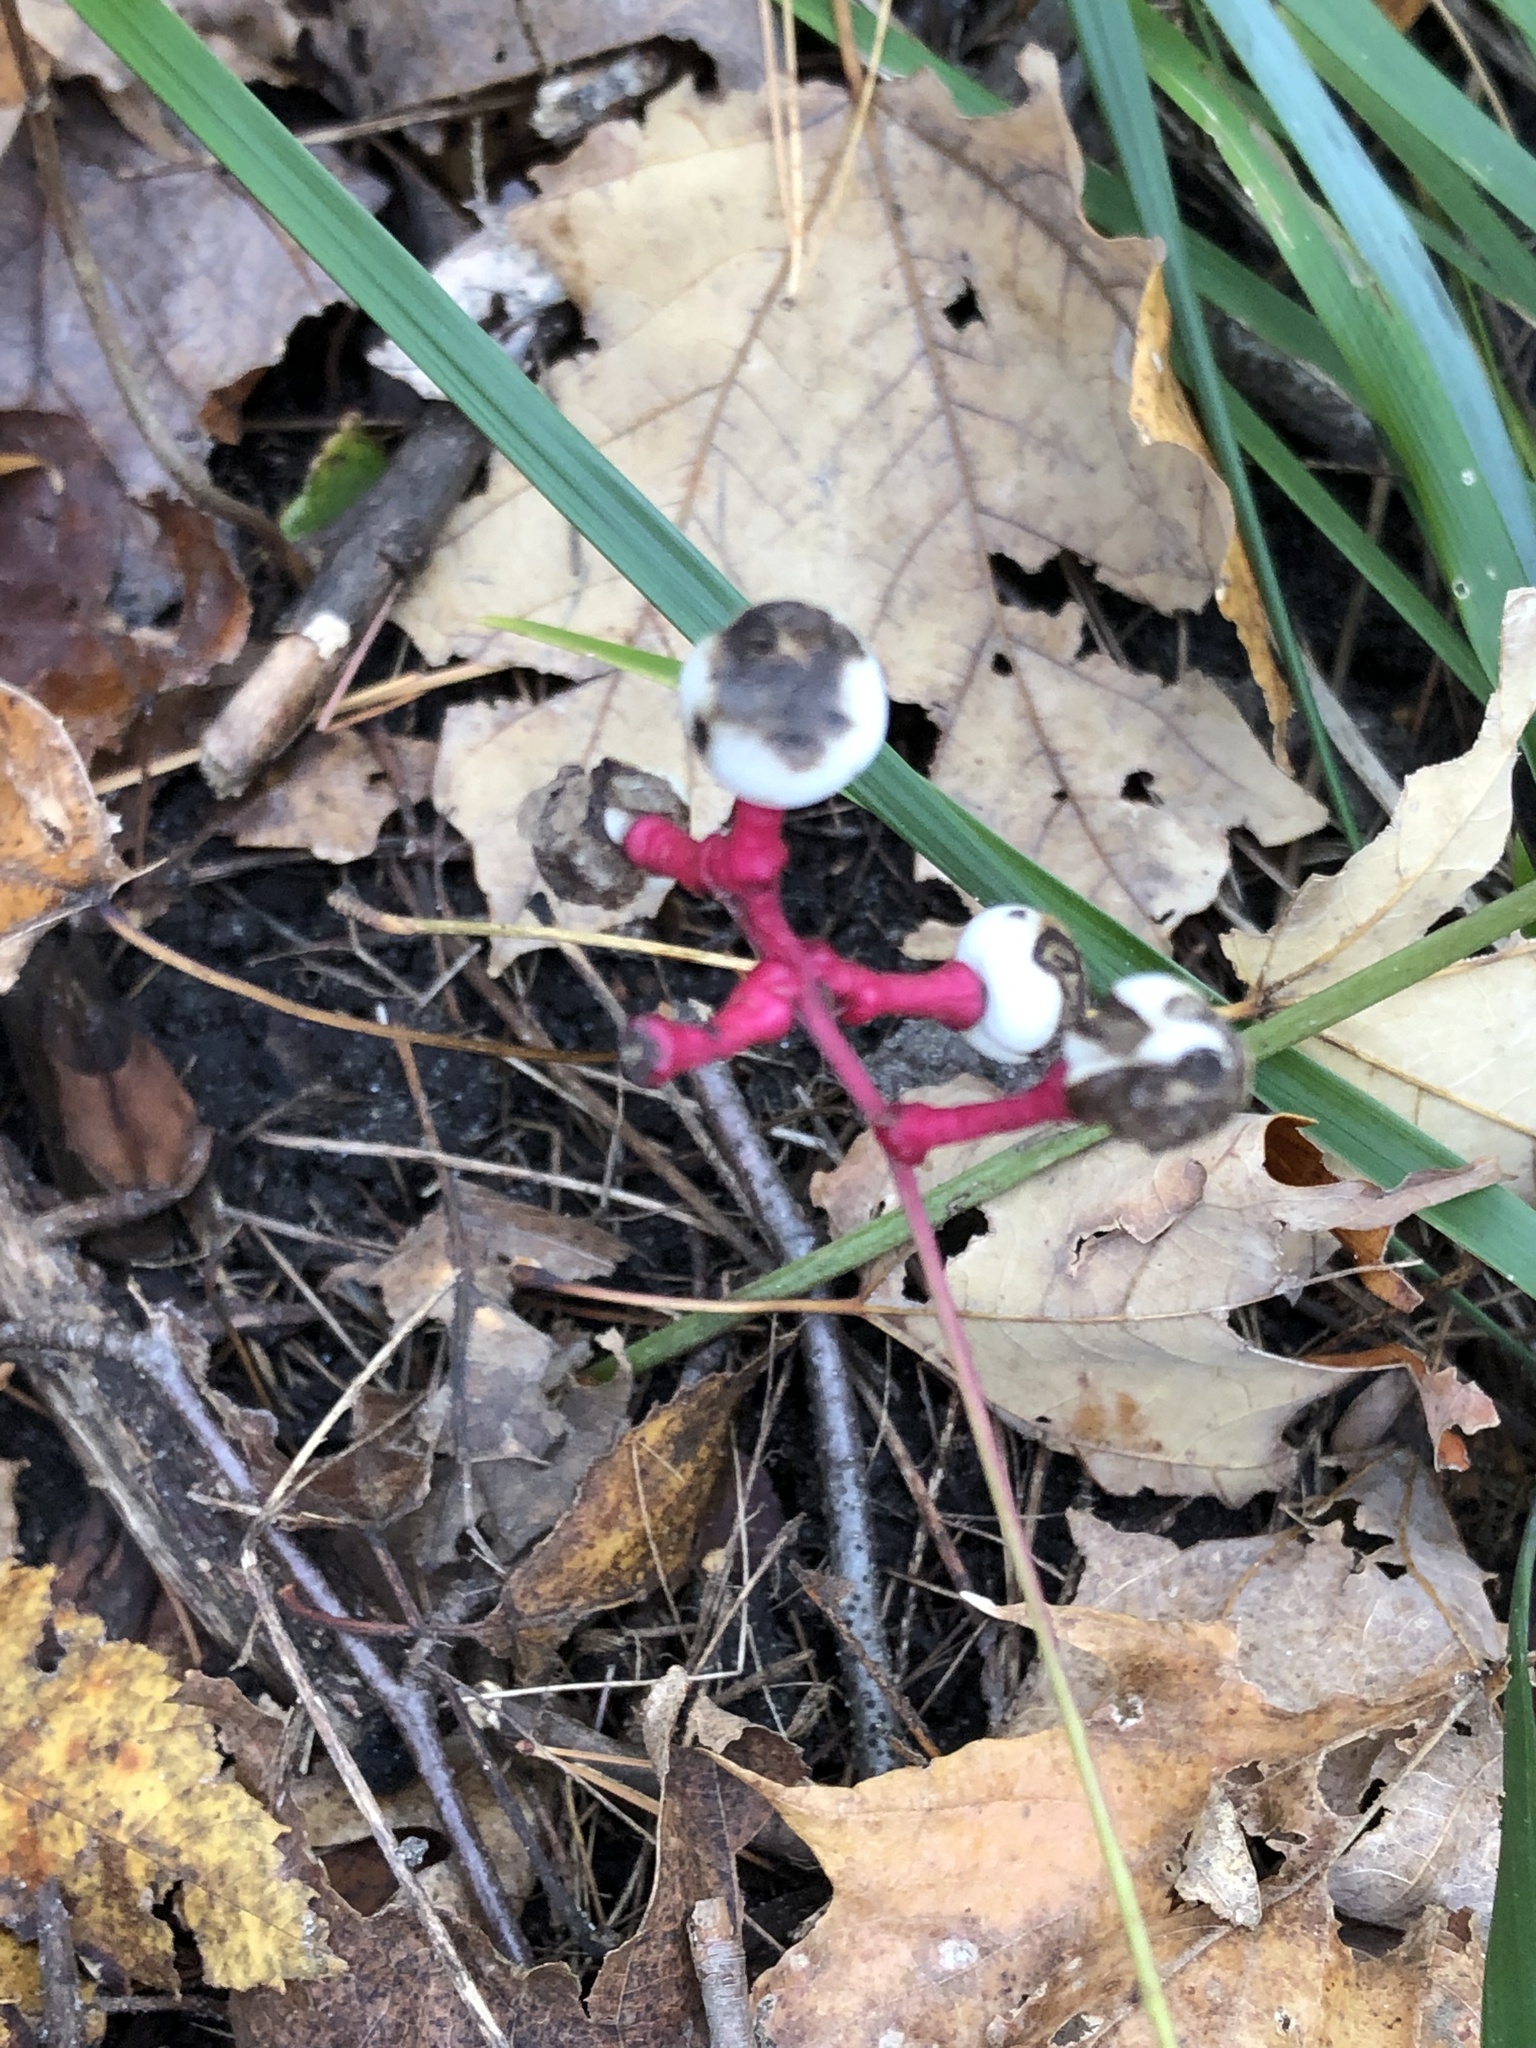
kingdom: Plantae
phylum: Tracheophyta
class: Magnoliopsida
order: Ranunculales
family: Ranunculaceae
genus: Actaea
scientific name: Actaea pachypoda
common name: Doll's-eyes
